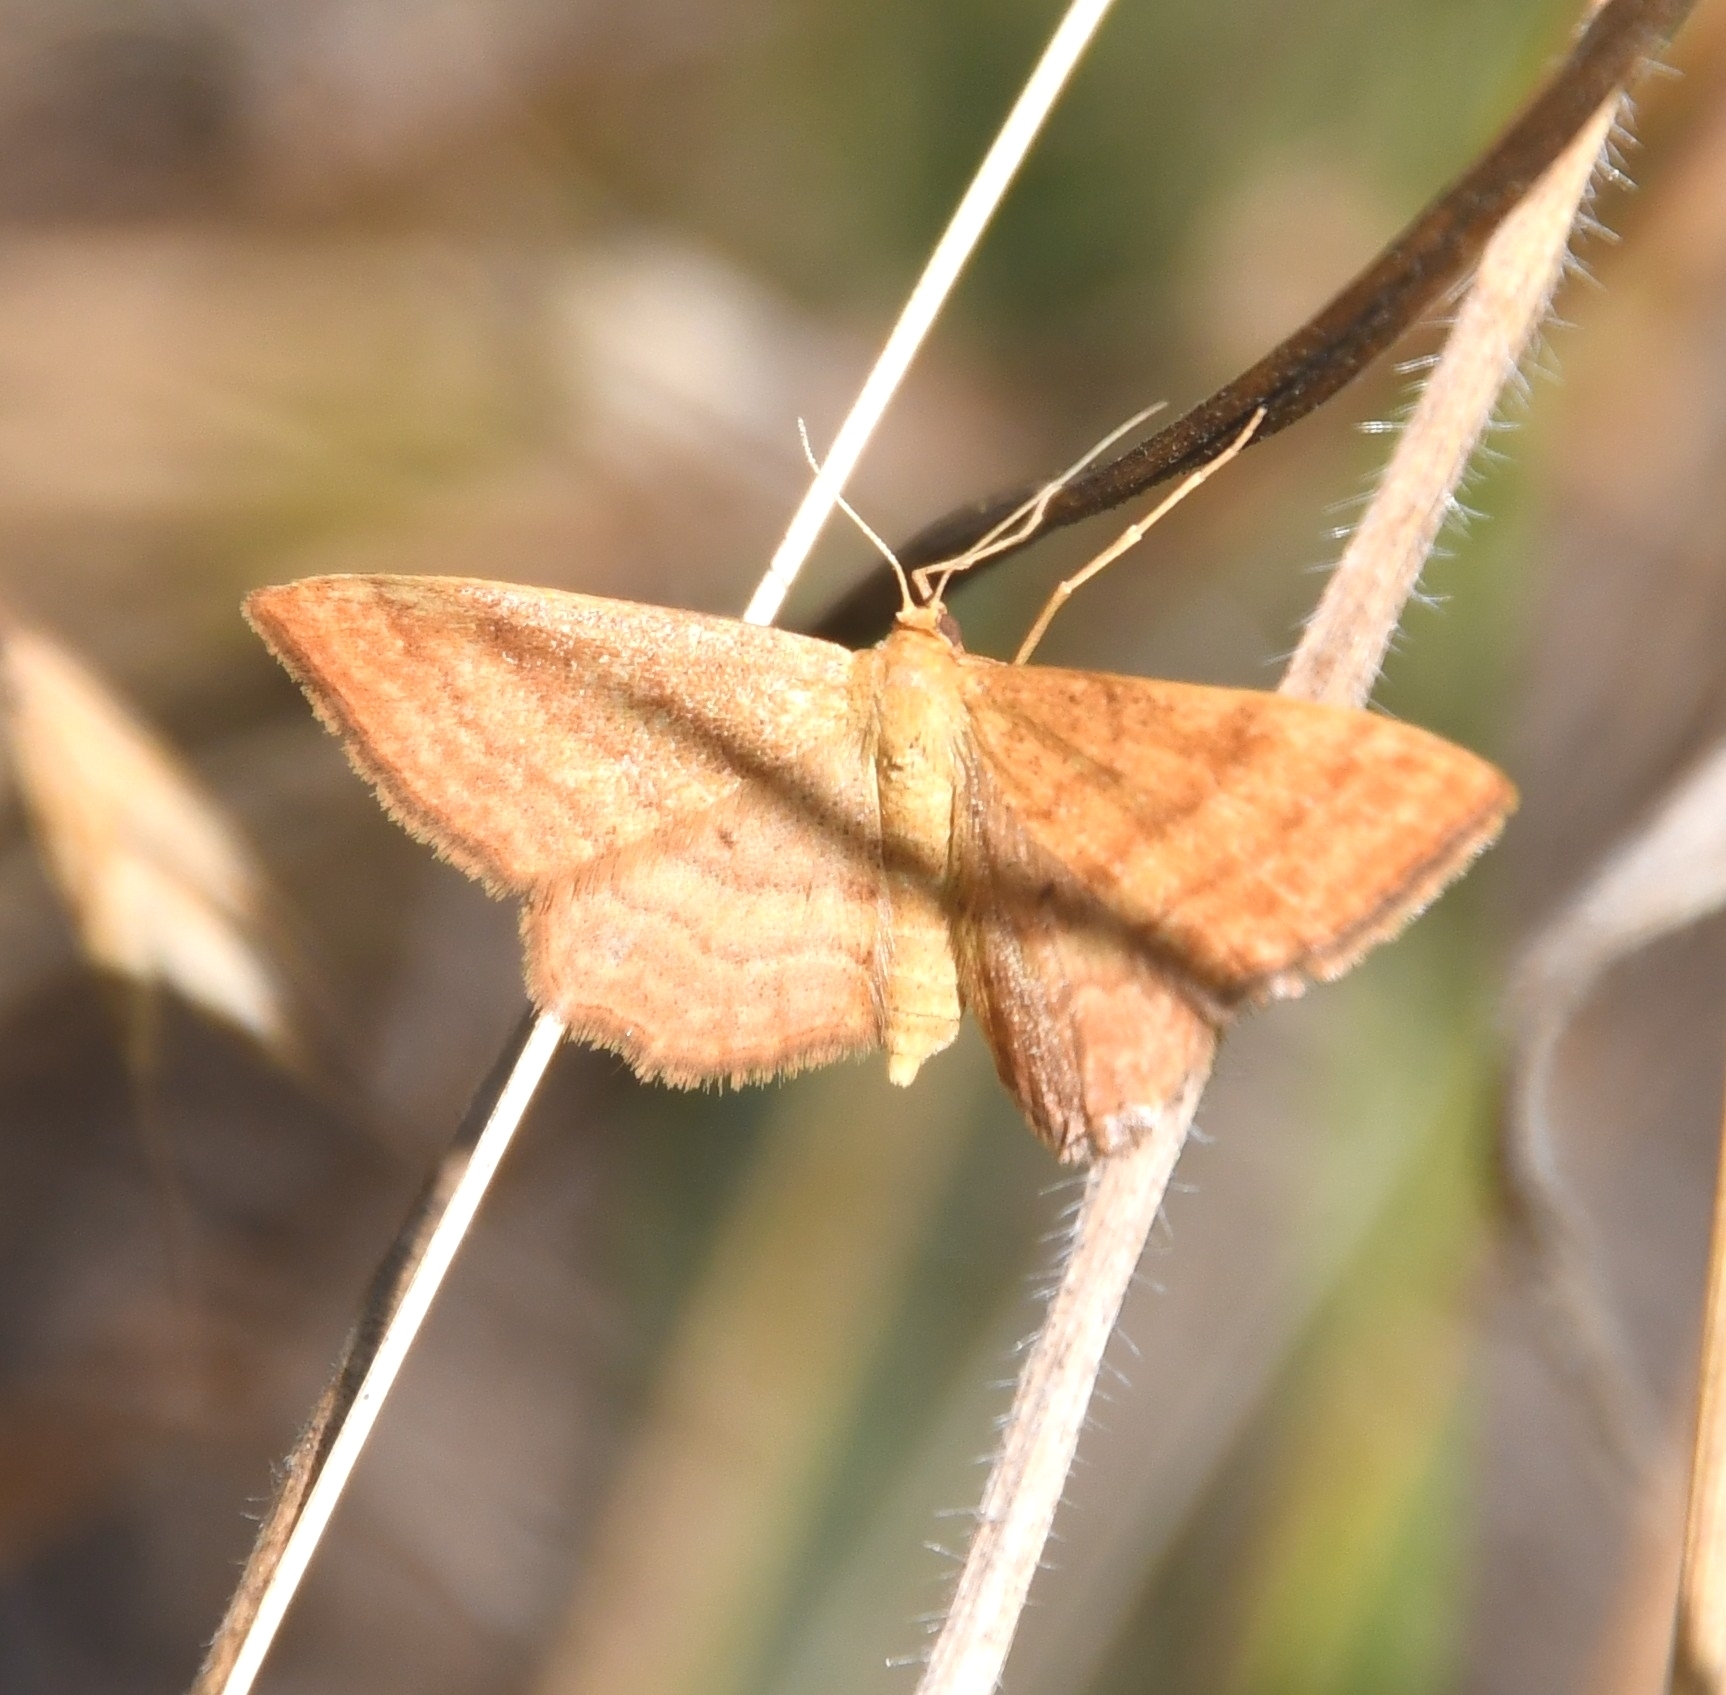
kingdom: Animalia
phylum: Arthropoda
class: Insecta
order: Lepidoptera
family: Geometridae
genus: Idaea
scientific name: Idaea ochrata
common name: Bright wave
